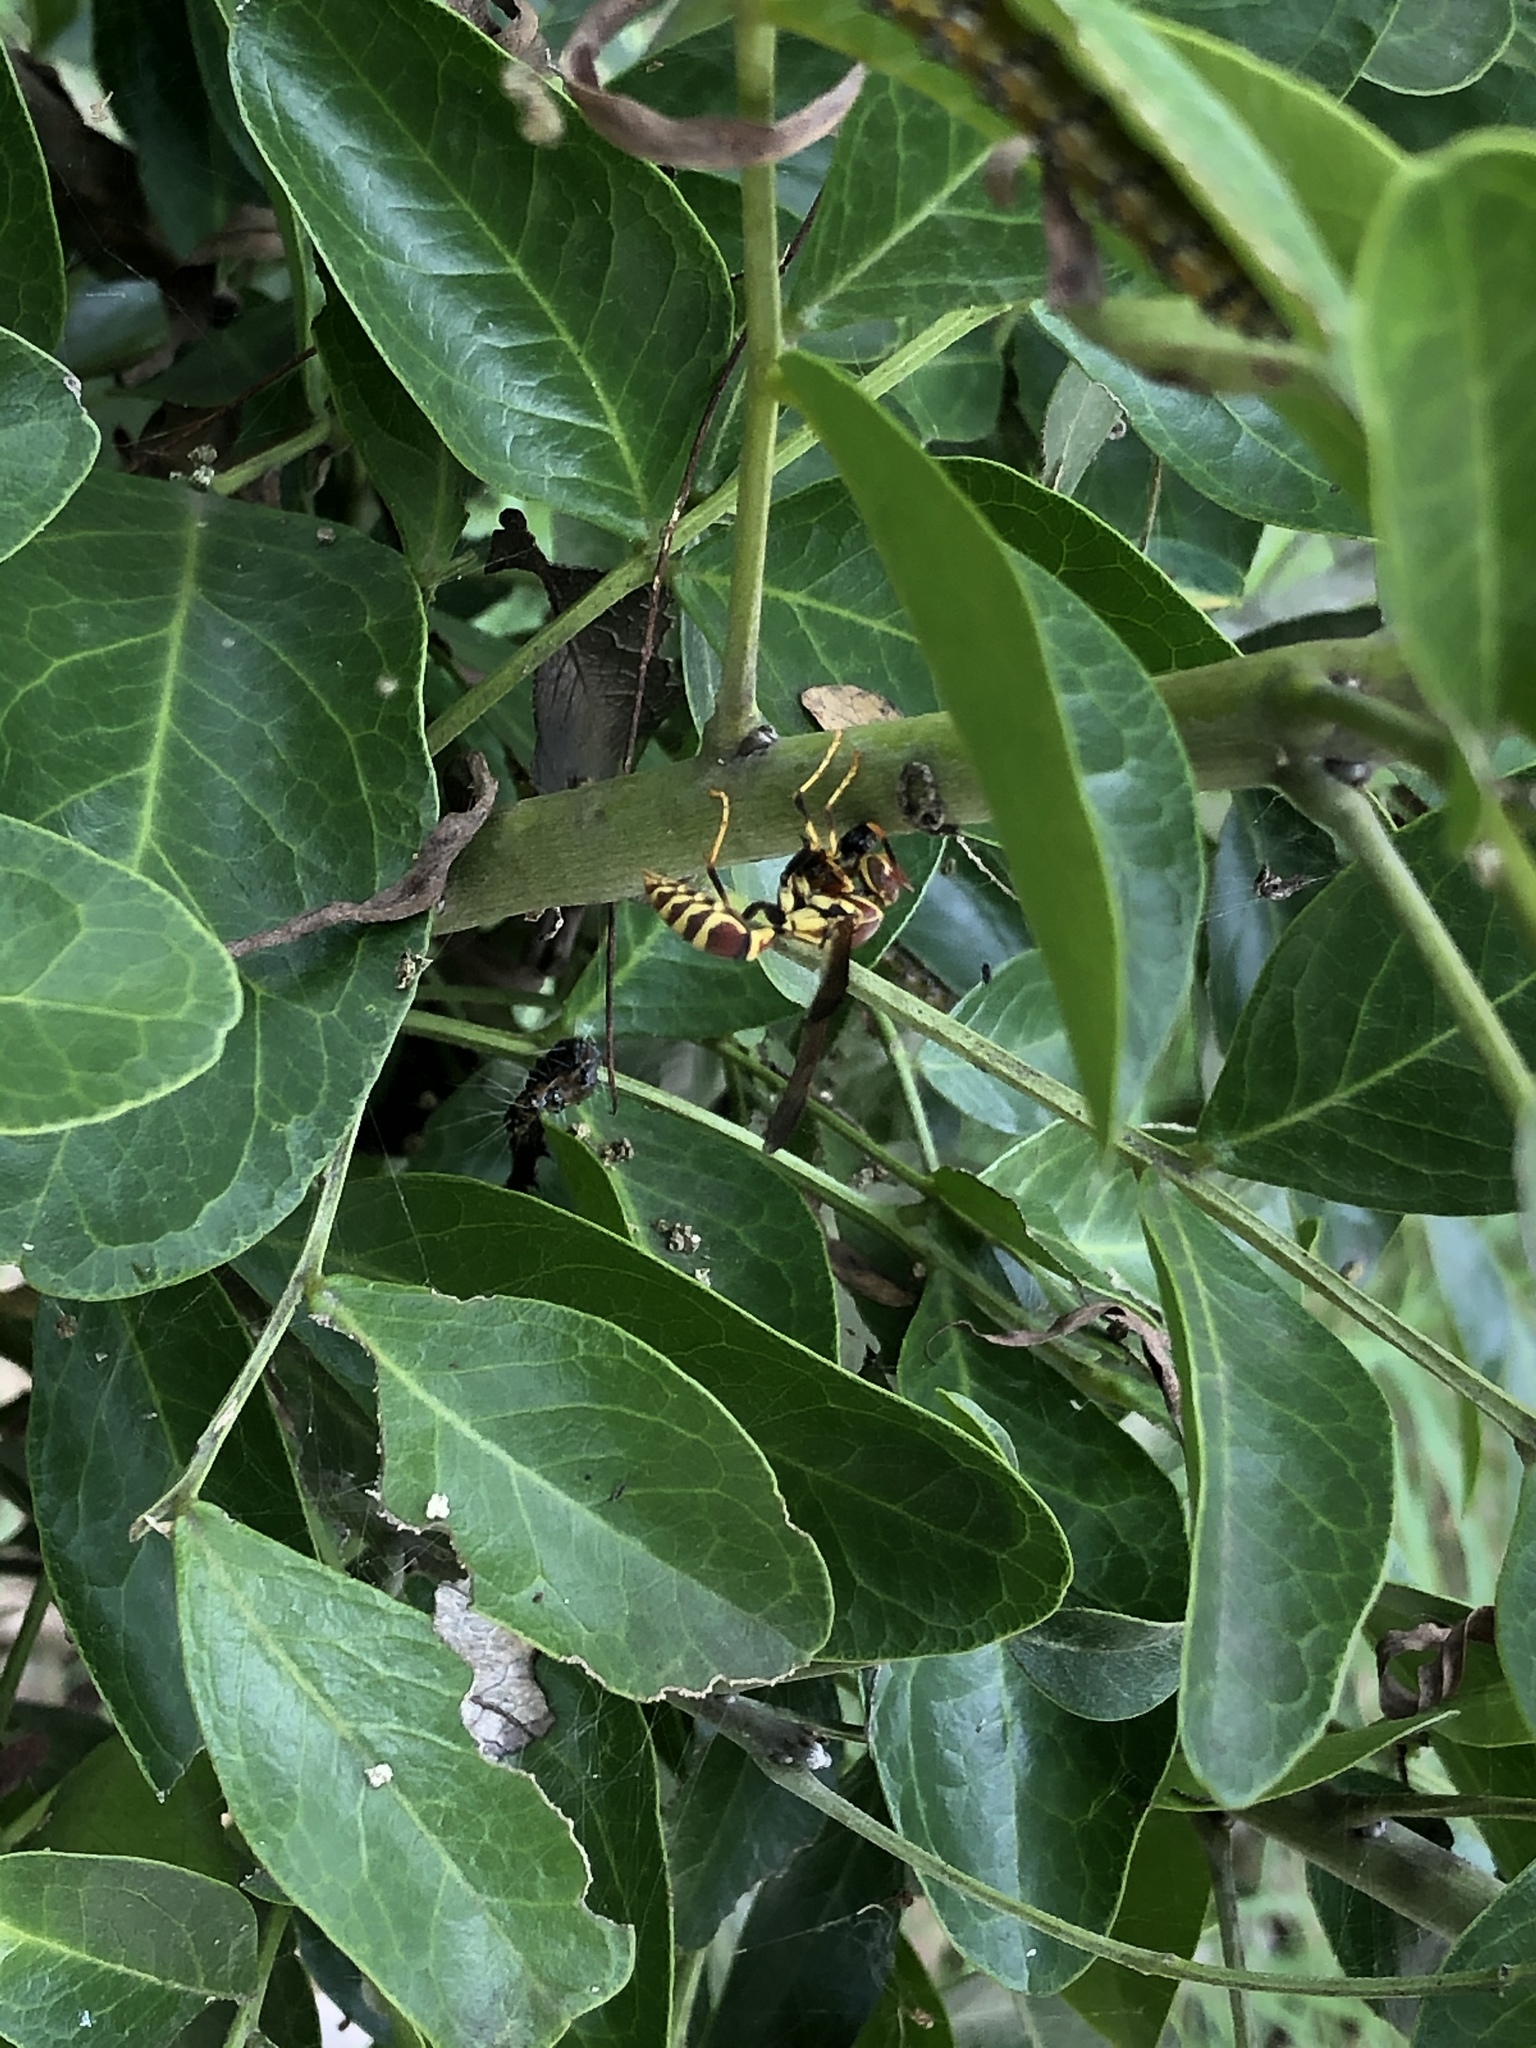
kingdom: Animalia
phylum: Arthropoda
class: Insecta
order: Hymenoptera
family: Eumenidae
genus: Polistes
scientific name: Polistes exclamans
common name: Paper wasp
